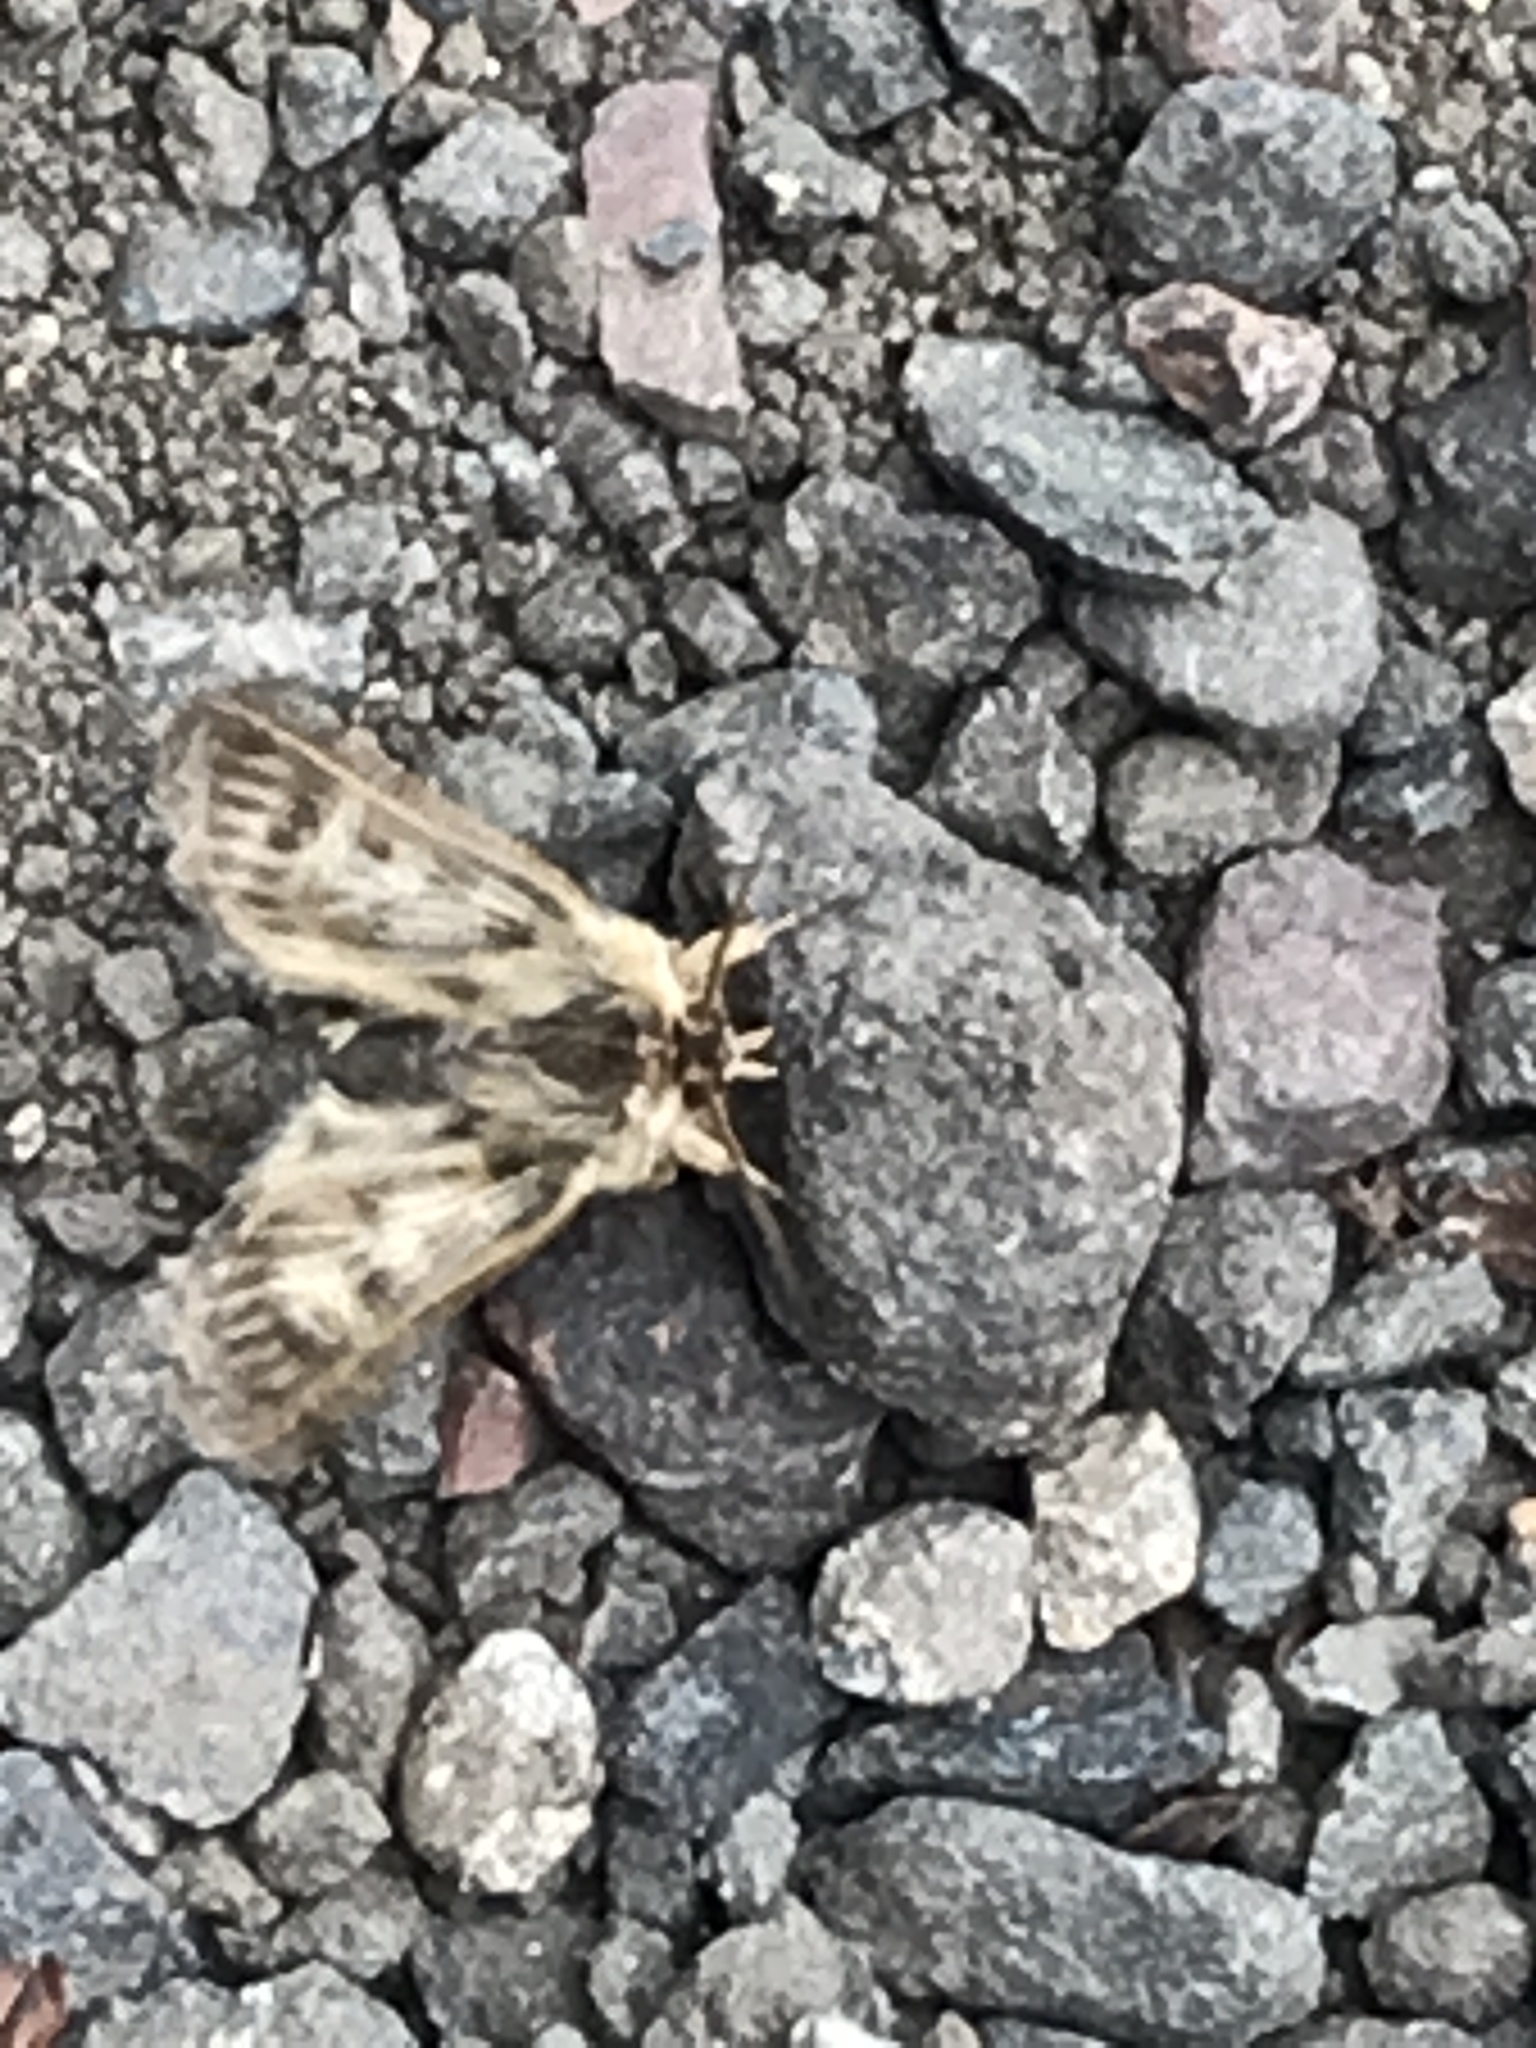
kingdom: Animalia
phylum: Arthropoda
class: Insecta
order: Lepidoptera
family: Noctuidae
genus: Cerapteryx
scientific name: Cerapteryx graminis
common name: Antler moth
